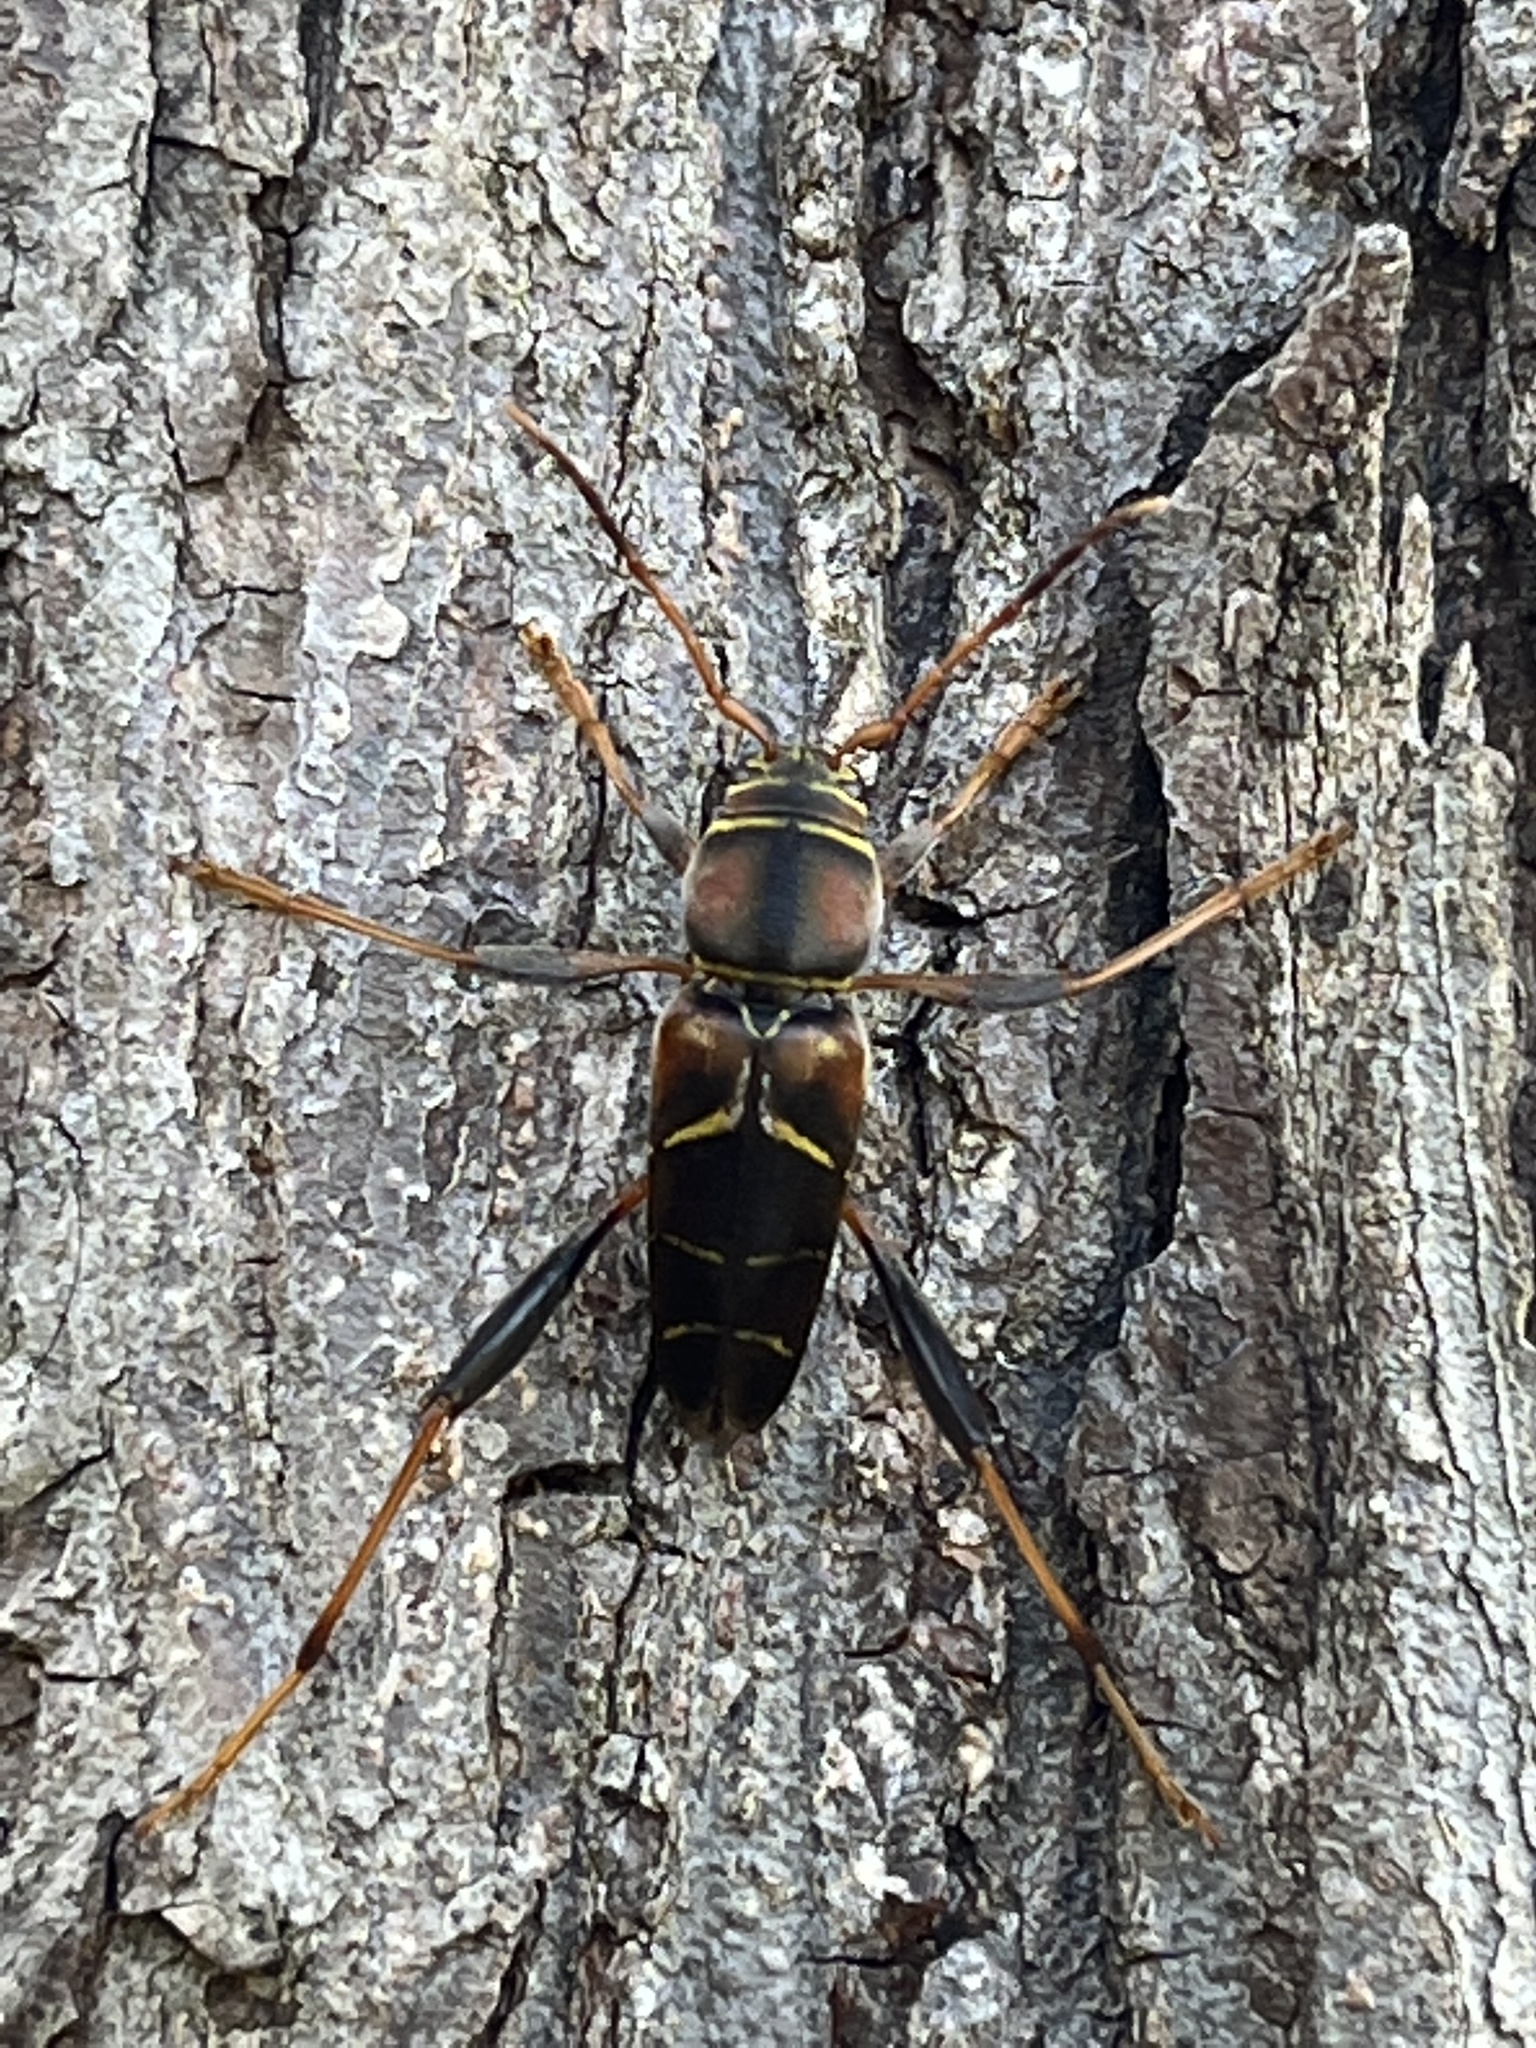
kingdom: Animalia
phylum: Arthropoda
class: Insecta
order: Coleoptera
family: Cerambycidae
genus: Neoclytus
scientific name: Neoclytus mucronatus
